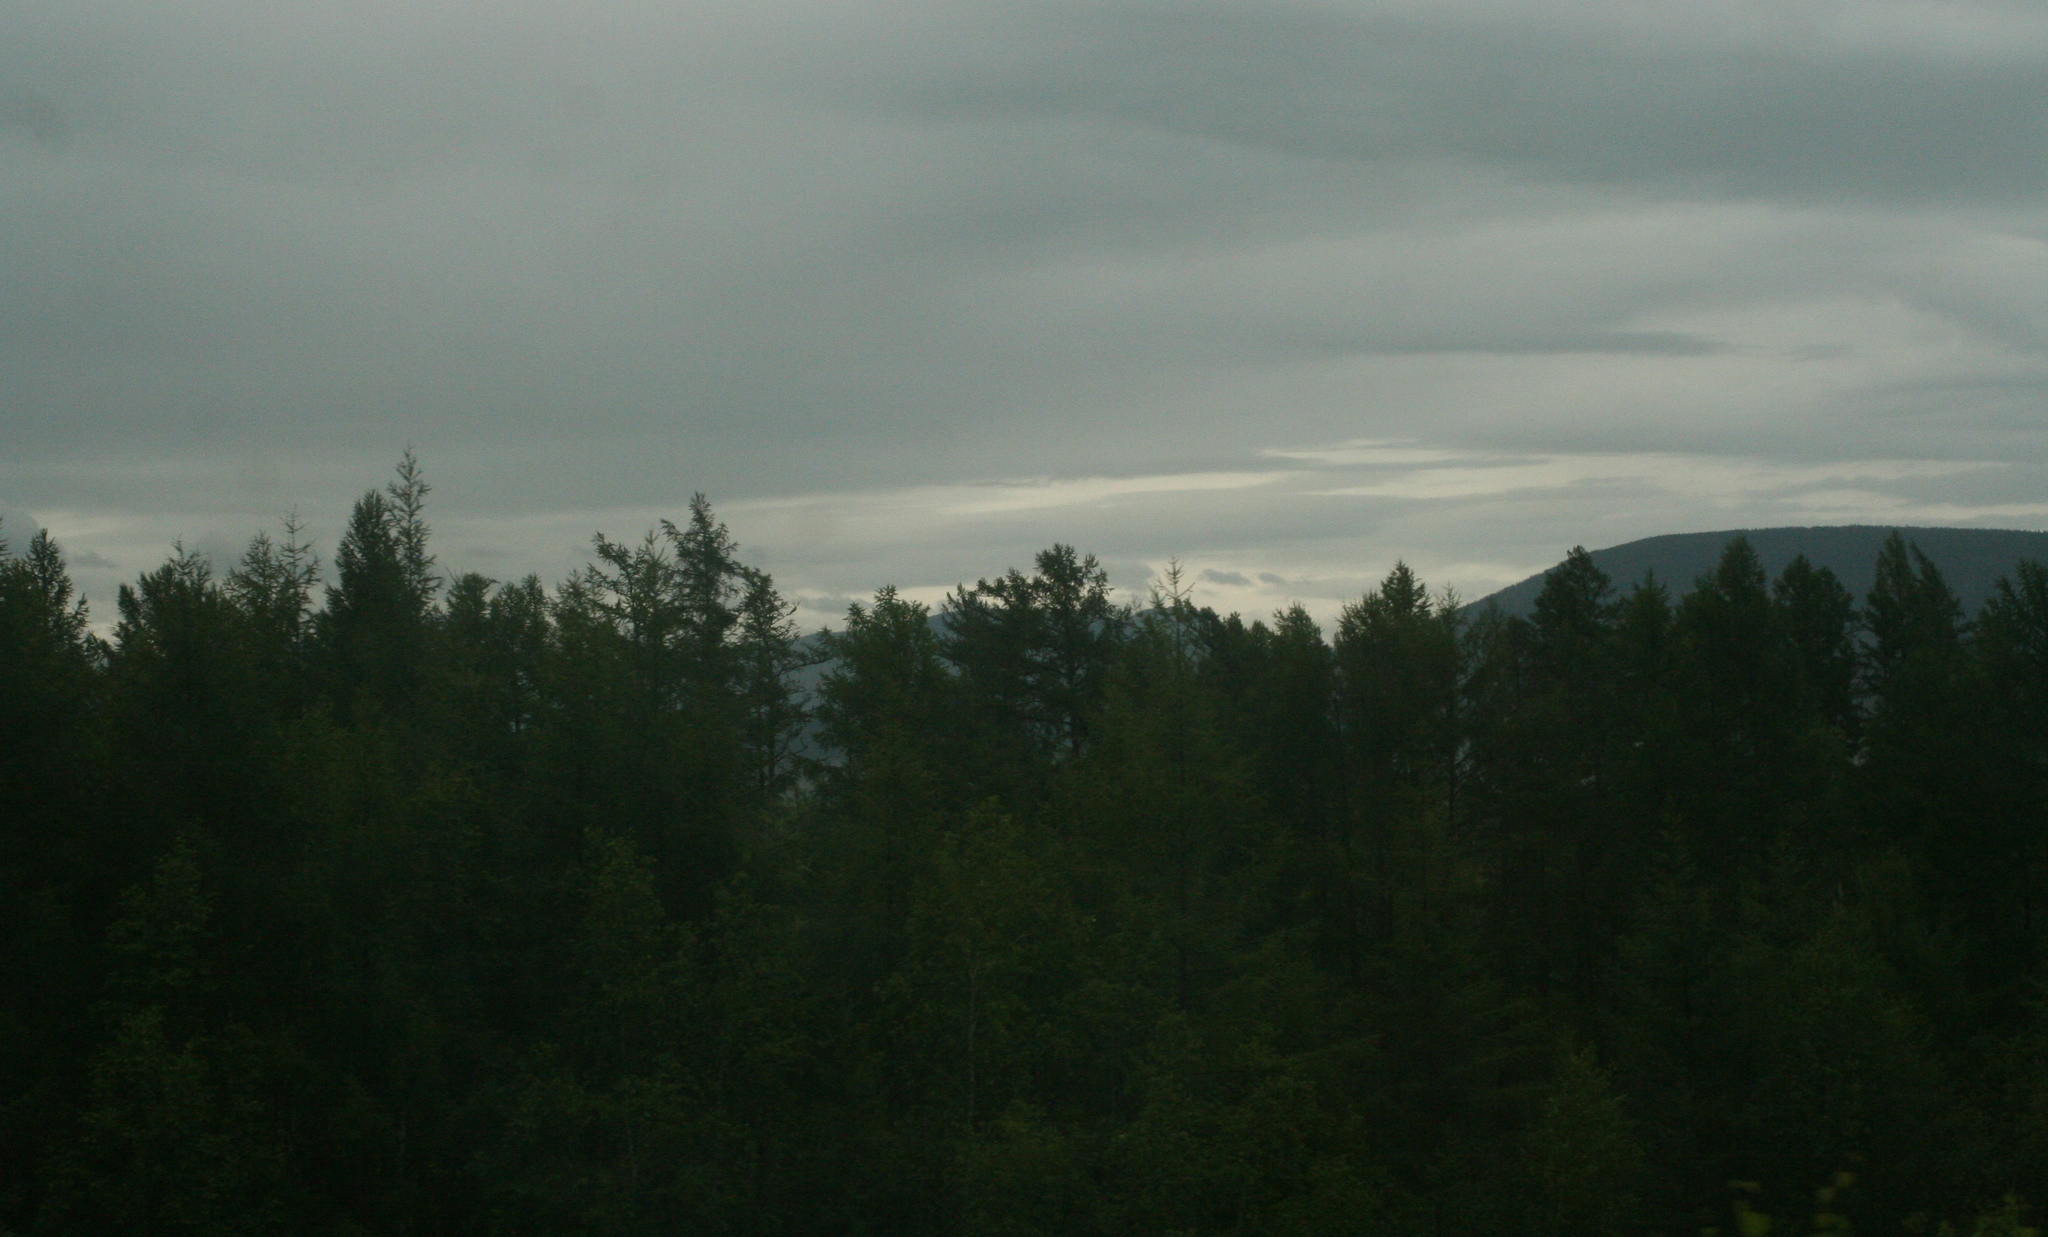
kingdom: Plantae
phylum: Tracheophyta
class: Pinopsida
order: Pinales
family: Pinaceae
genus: Larix
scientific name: Larix gmelinii
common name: Dahurian larch
